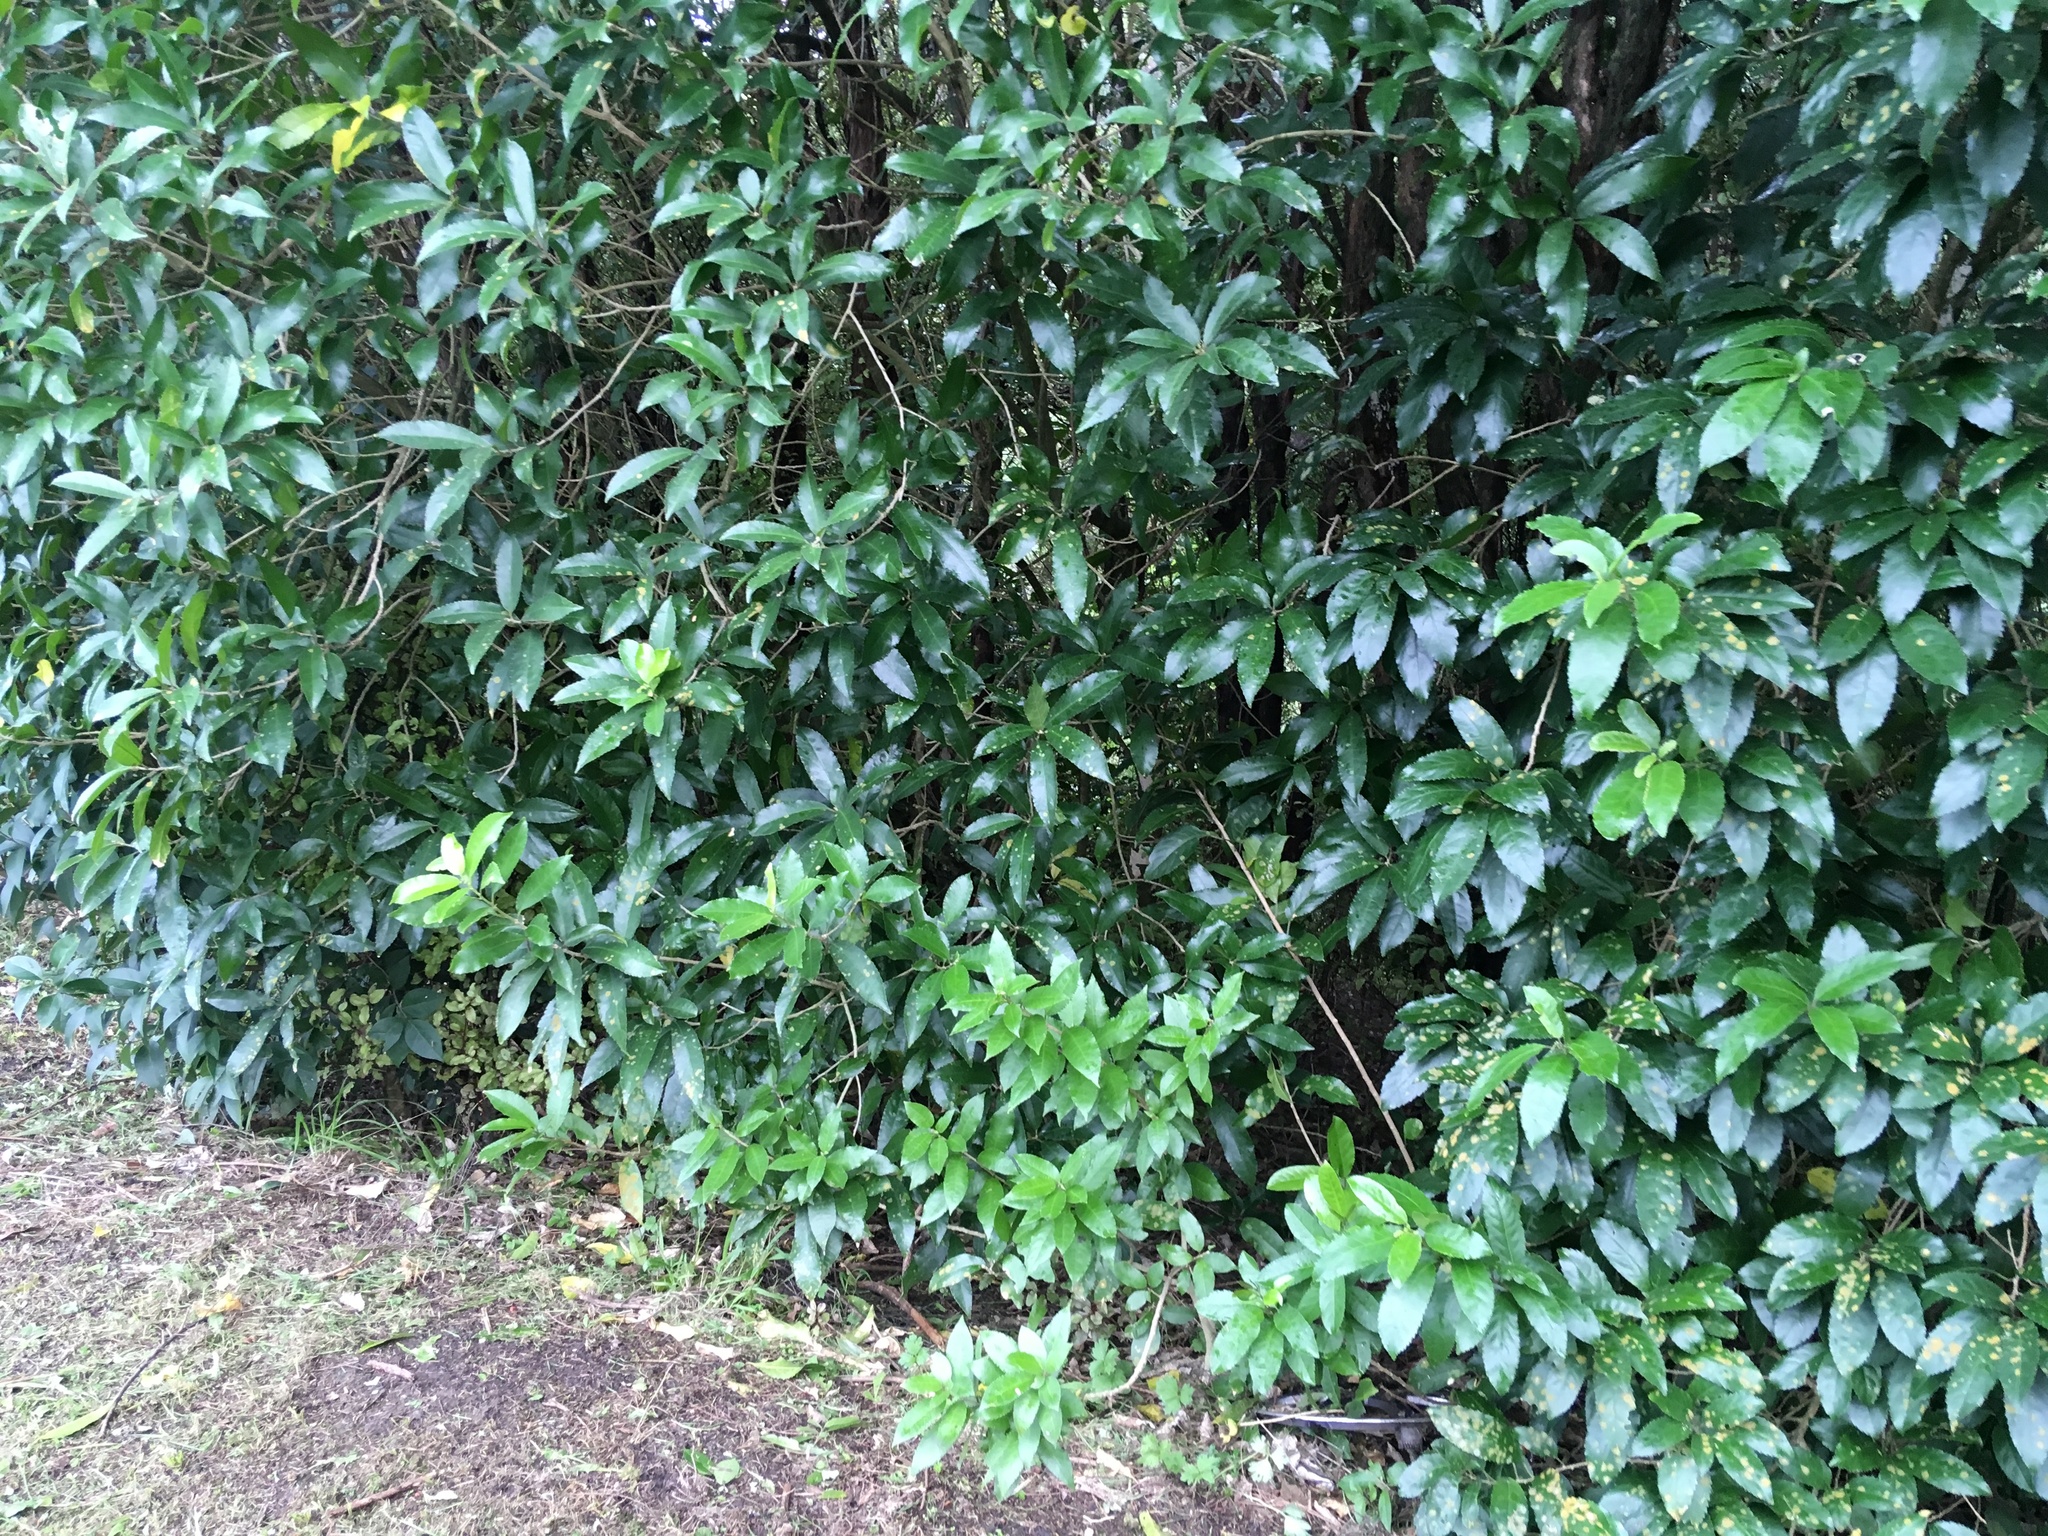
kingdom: Plantae
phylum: Tracheophyta
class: Magnoliopsida
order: Malpighiales
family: Violaceae
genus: Melicytus
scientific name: Melicytus ramiflorus
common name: Mahoe
